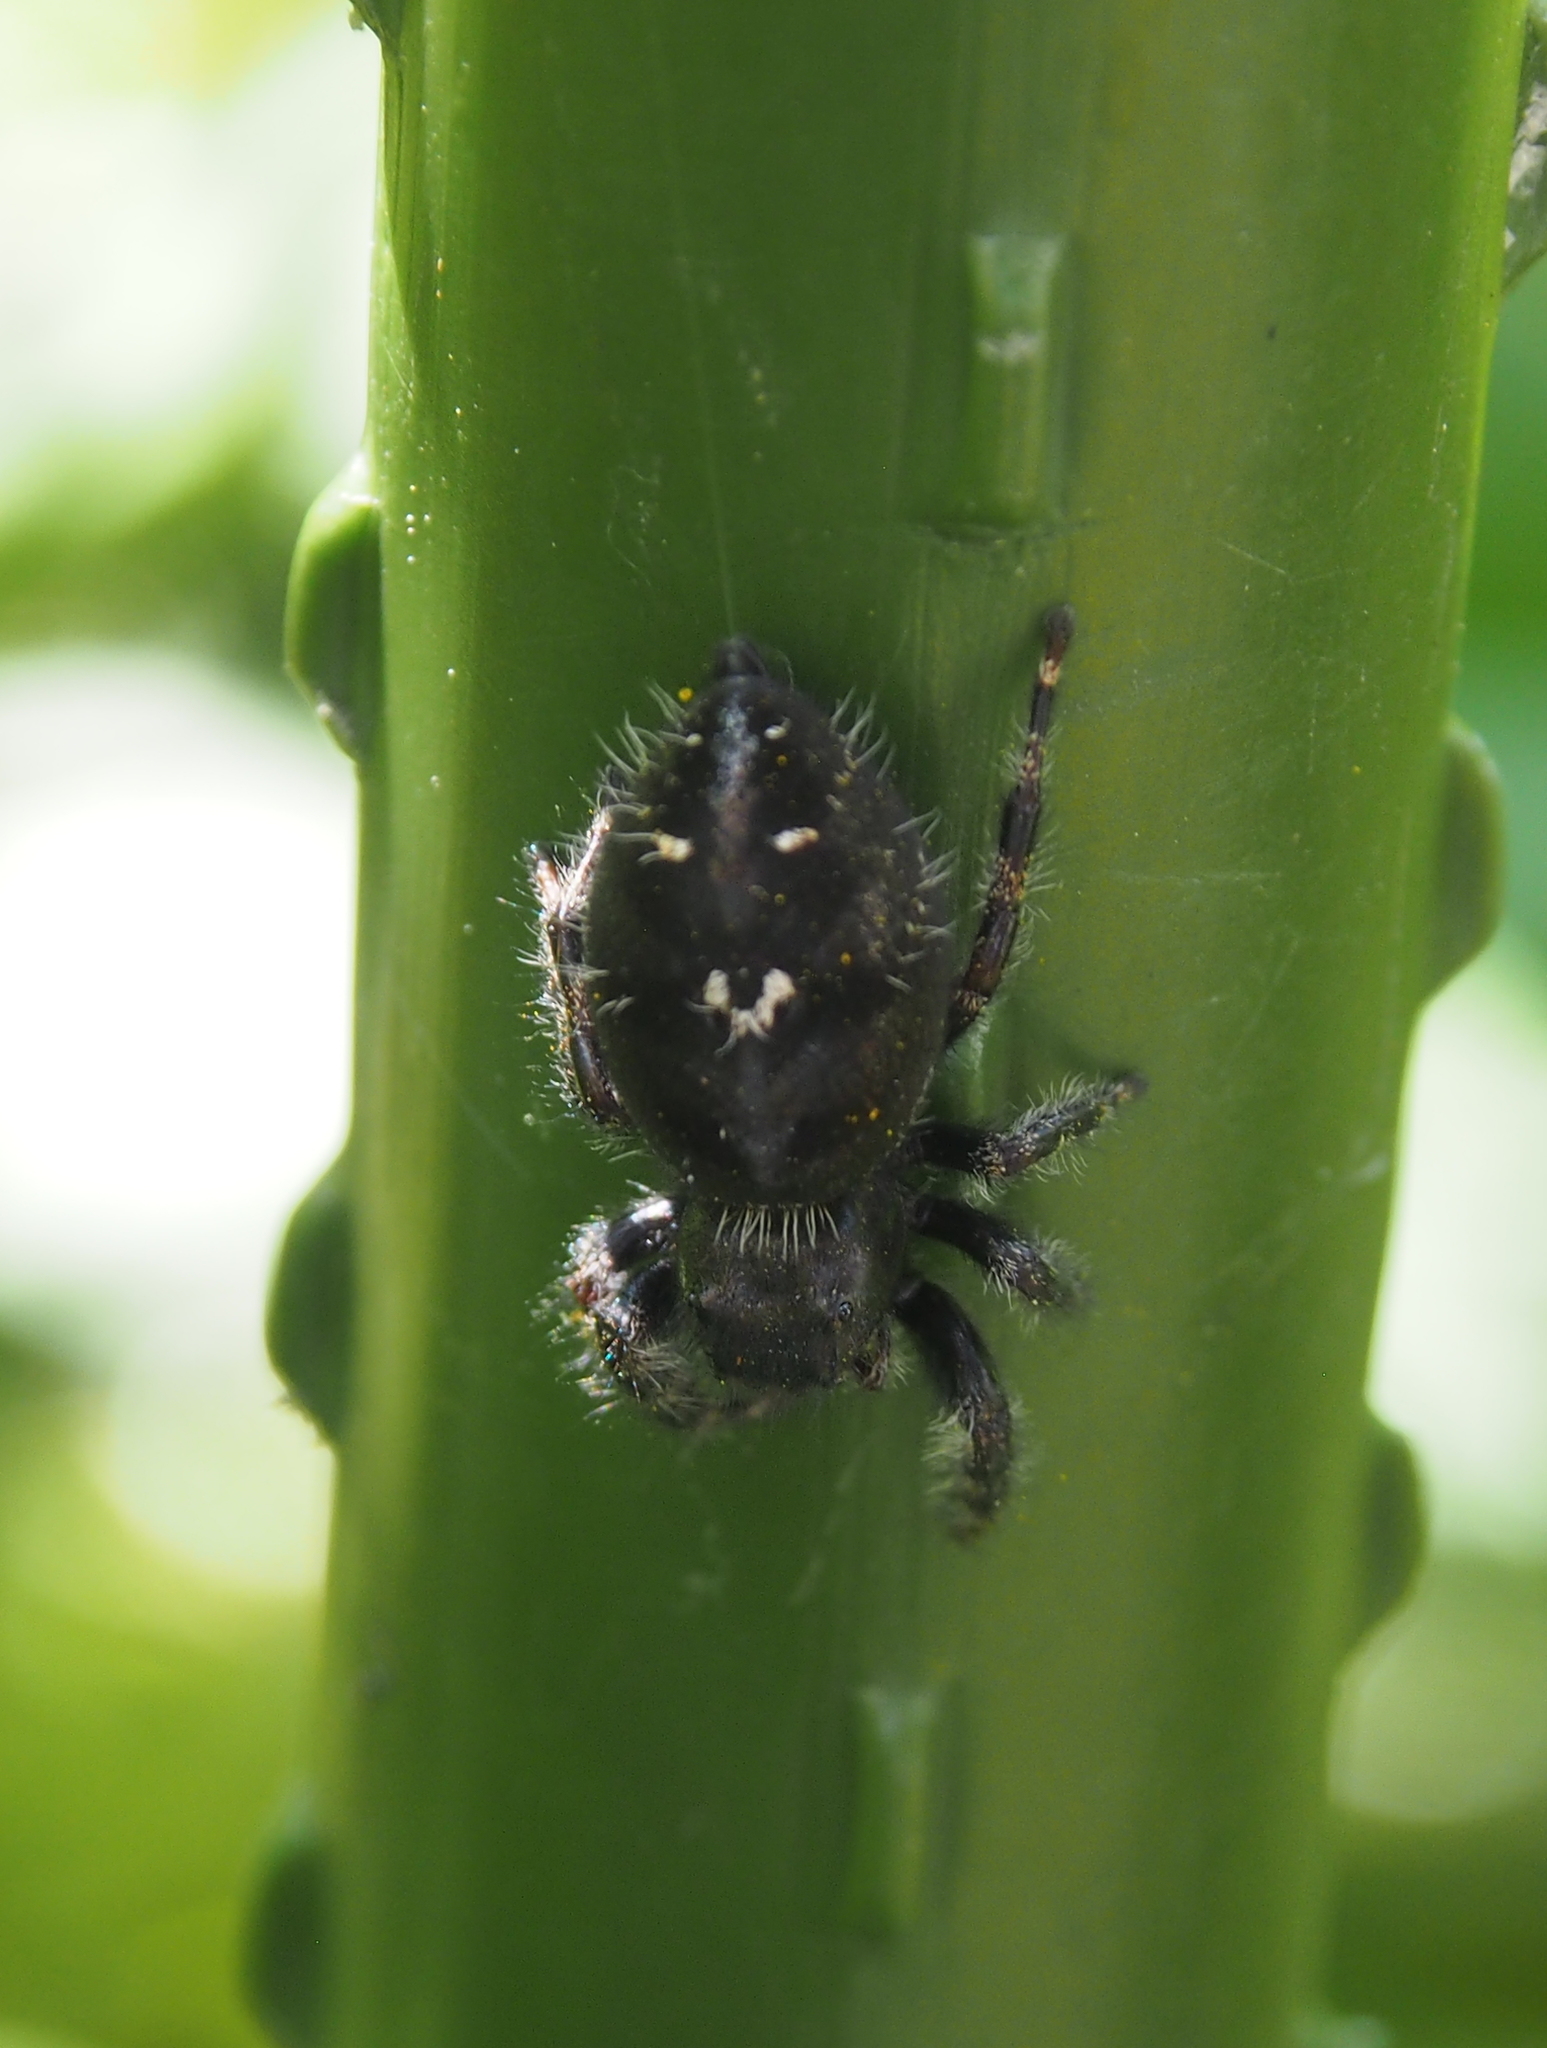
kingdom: Animalia
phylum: Arthropoda
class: Arachnida
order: Araneae
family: Salticidae
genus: Phidippus
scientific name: Phidippus audax
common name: Bold jumper
